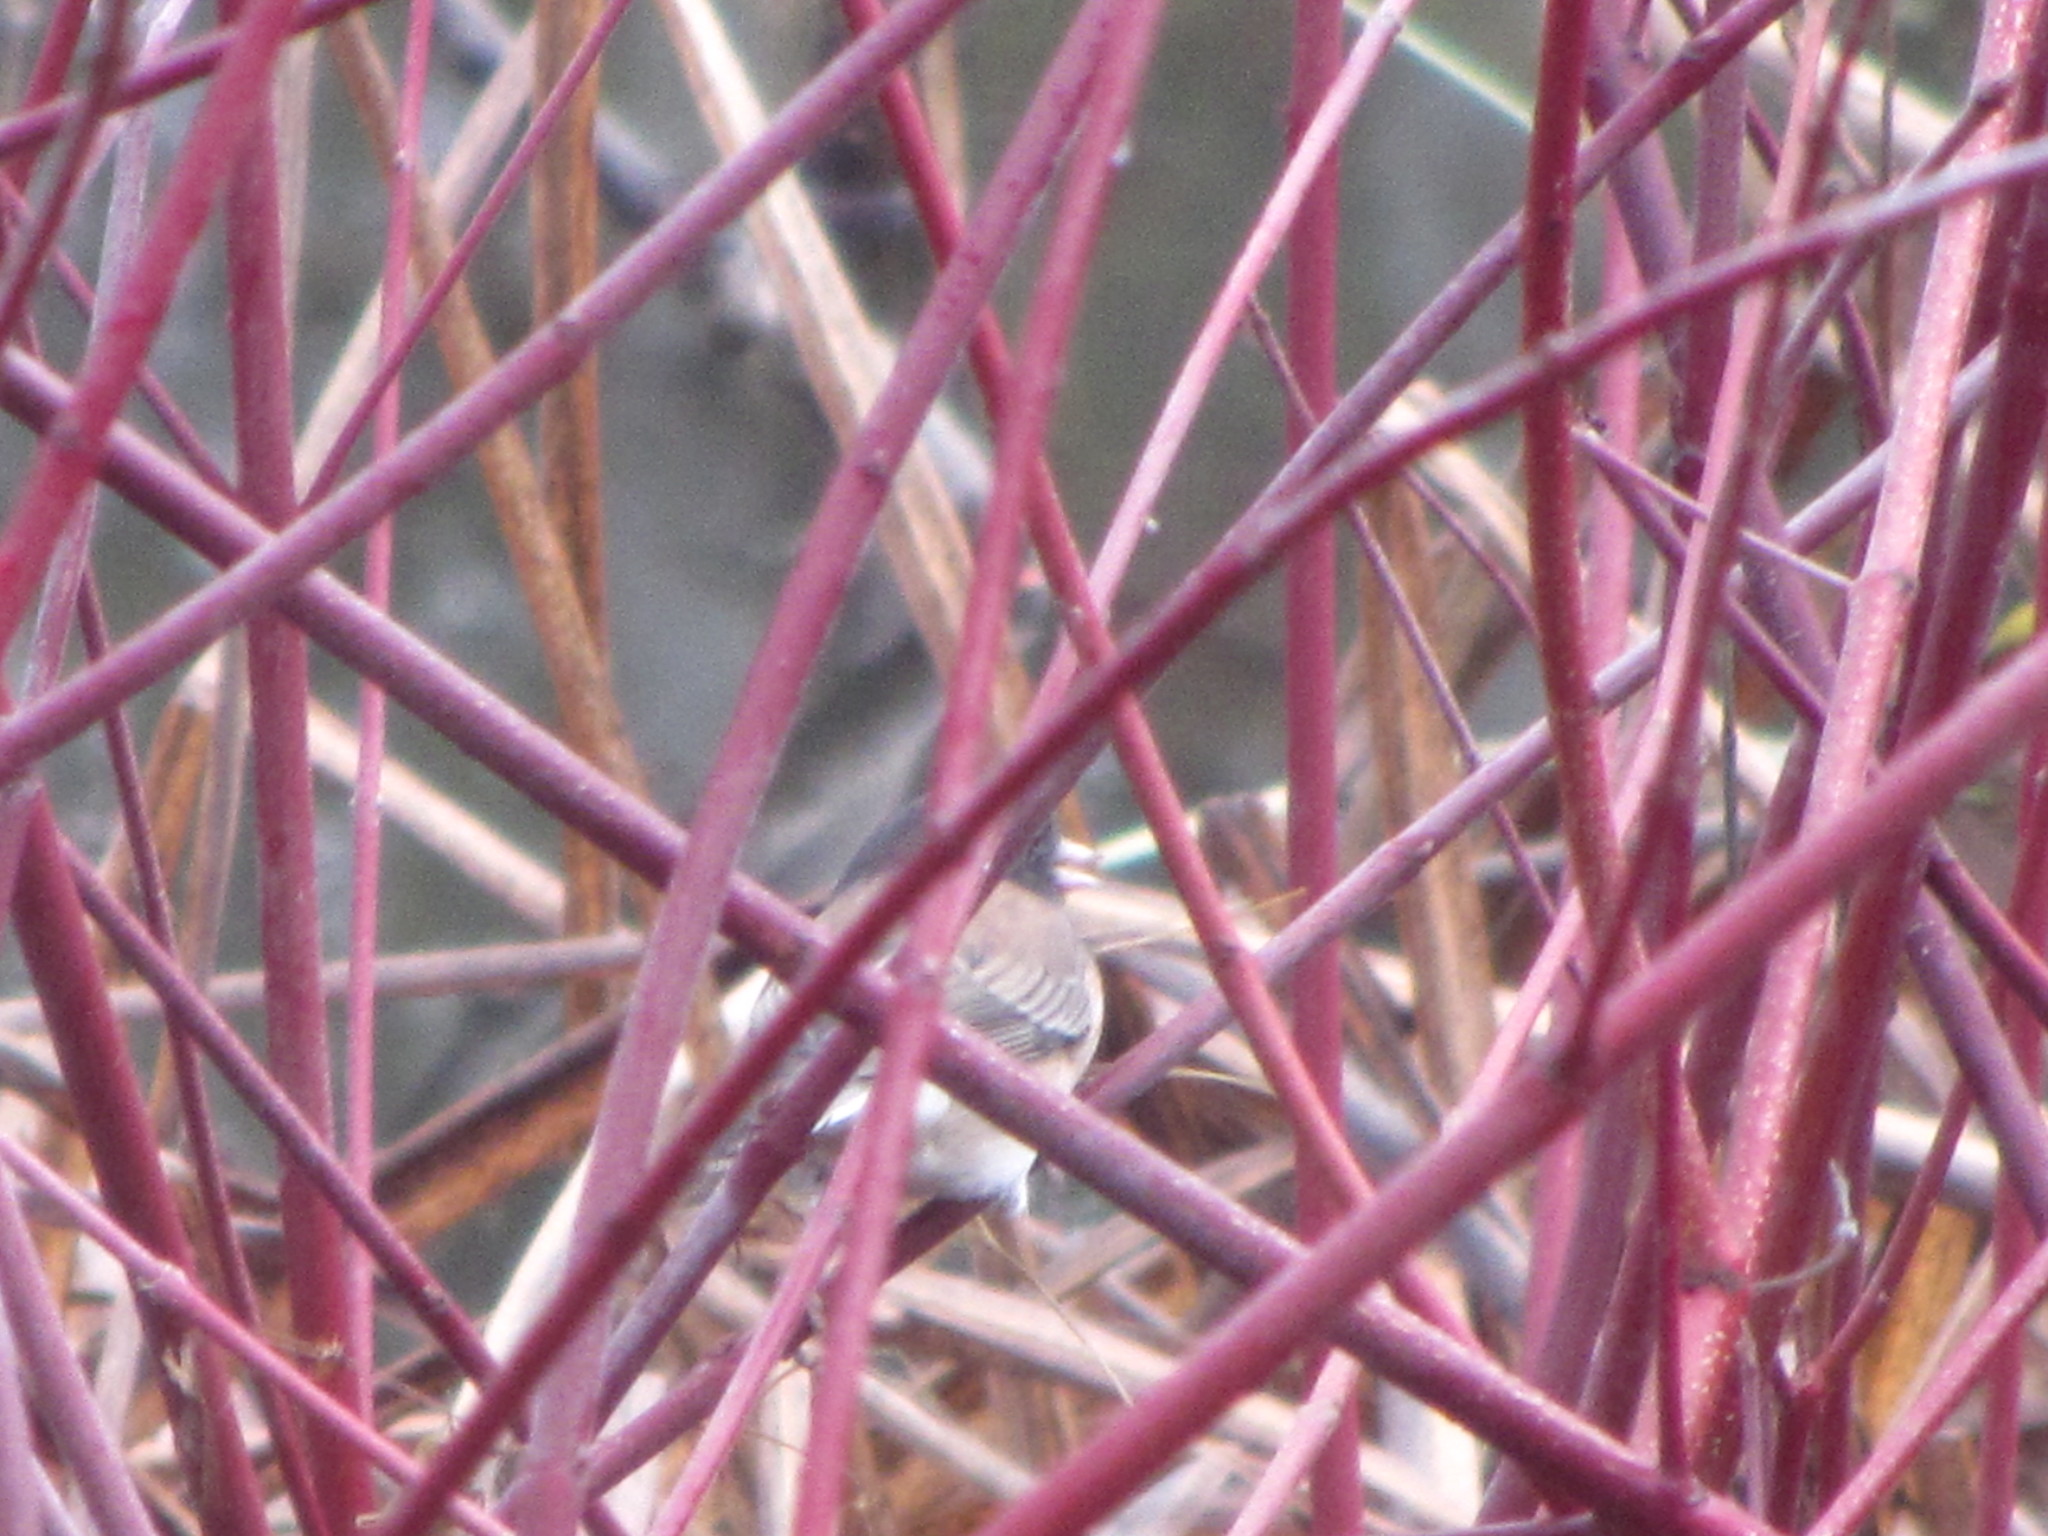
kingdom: Animalia
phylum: Chordata
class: Aves
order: Passeriformes
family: Passerellidae
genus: Junco
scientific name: Junco hyemalis
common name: Dark-eyed junco
